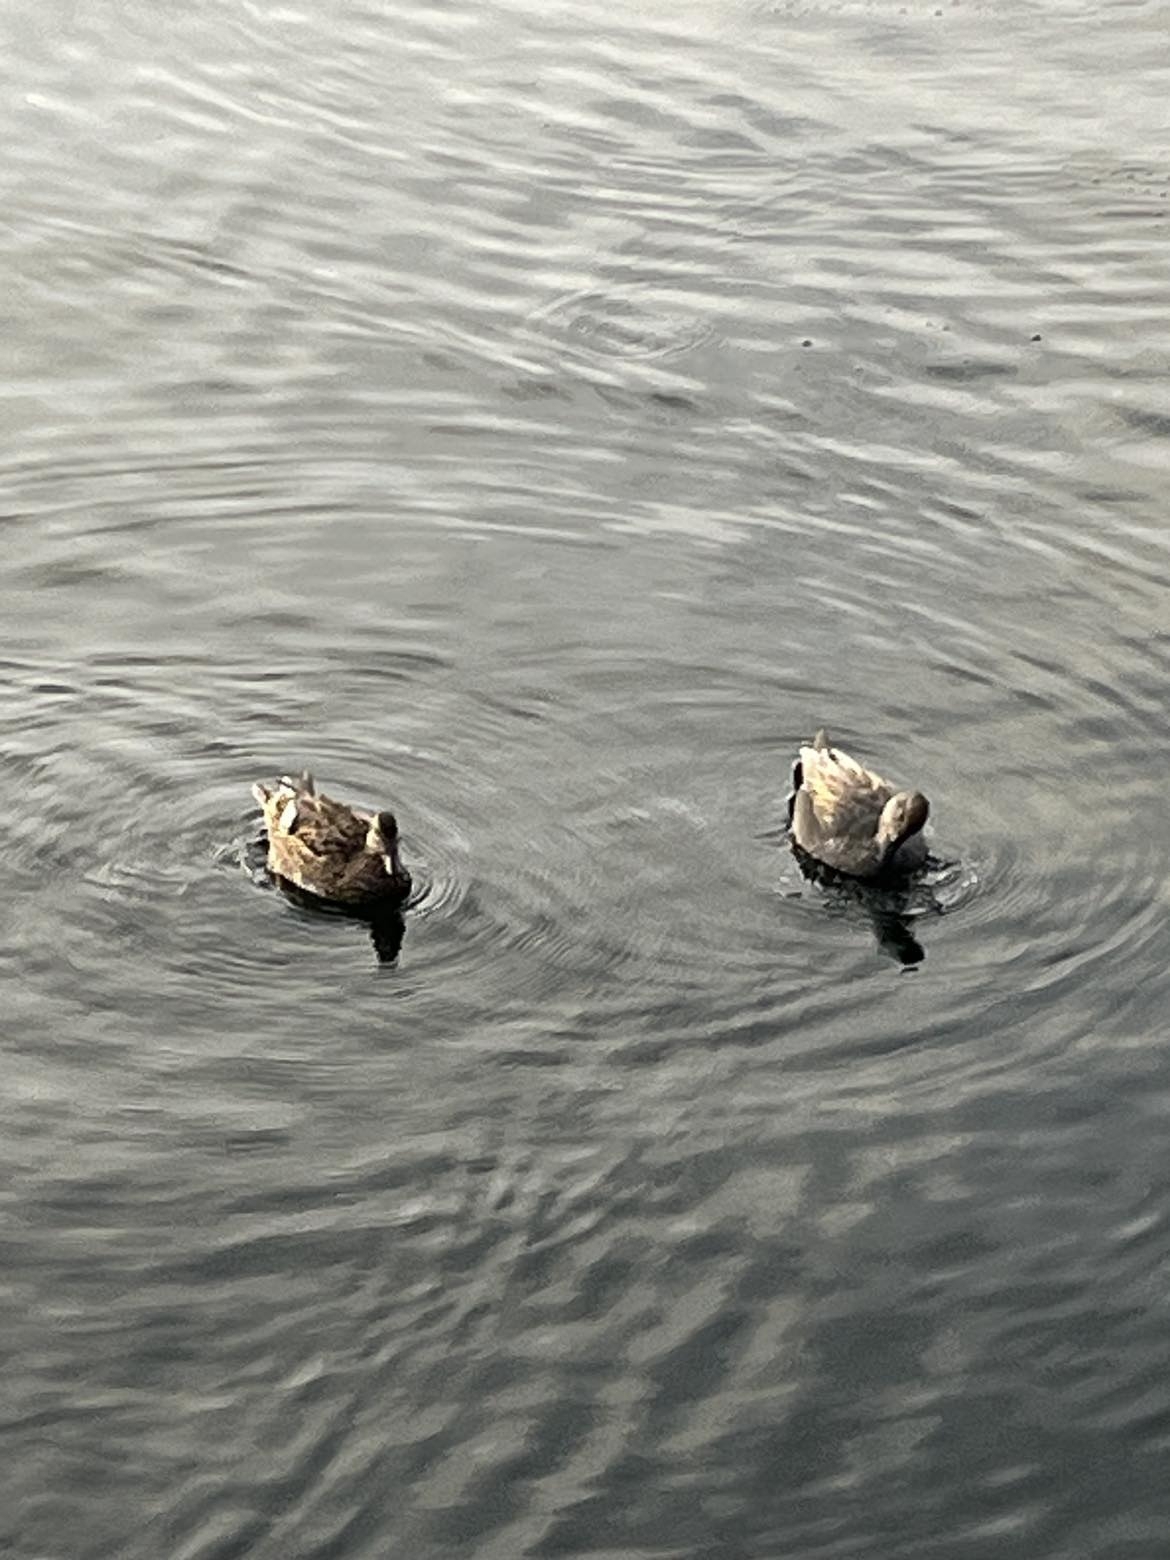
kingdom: Animalia
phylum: Chordata
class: Aves
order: Anseriformes
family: Anatidae
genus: Mareca
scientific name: Mareca strepera
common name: Gadwall
